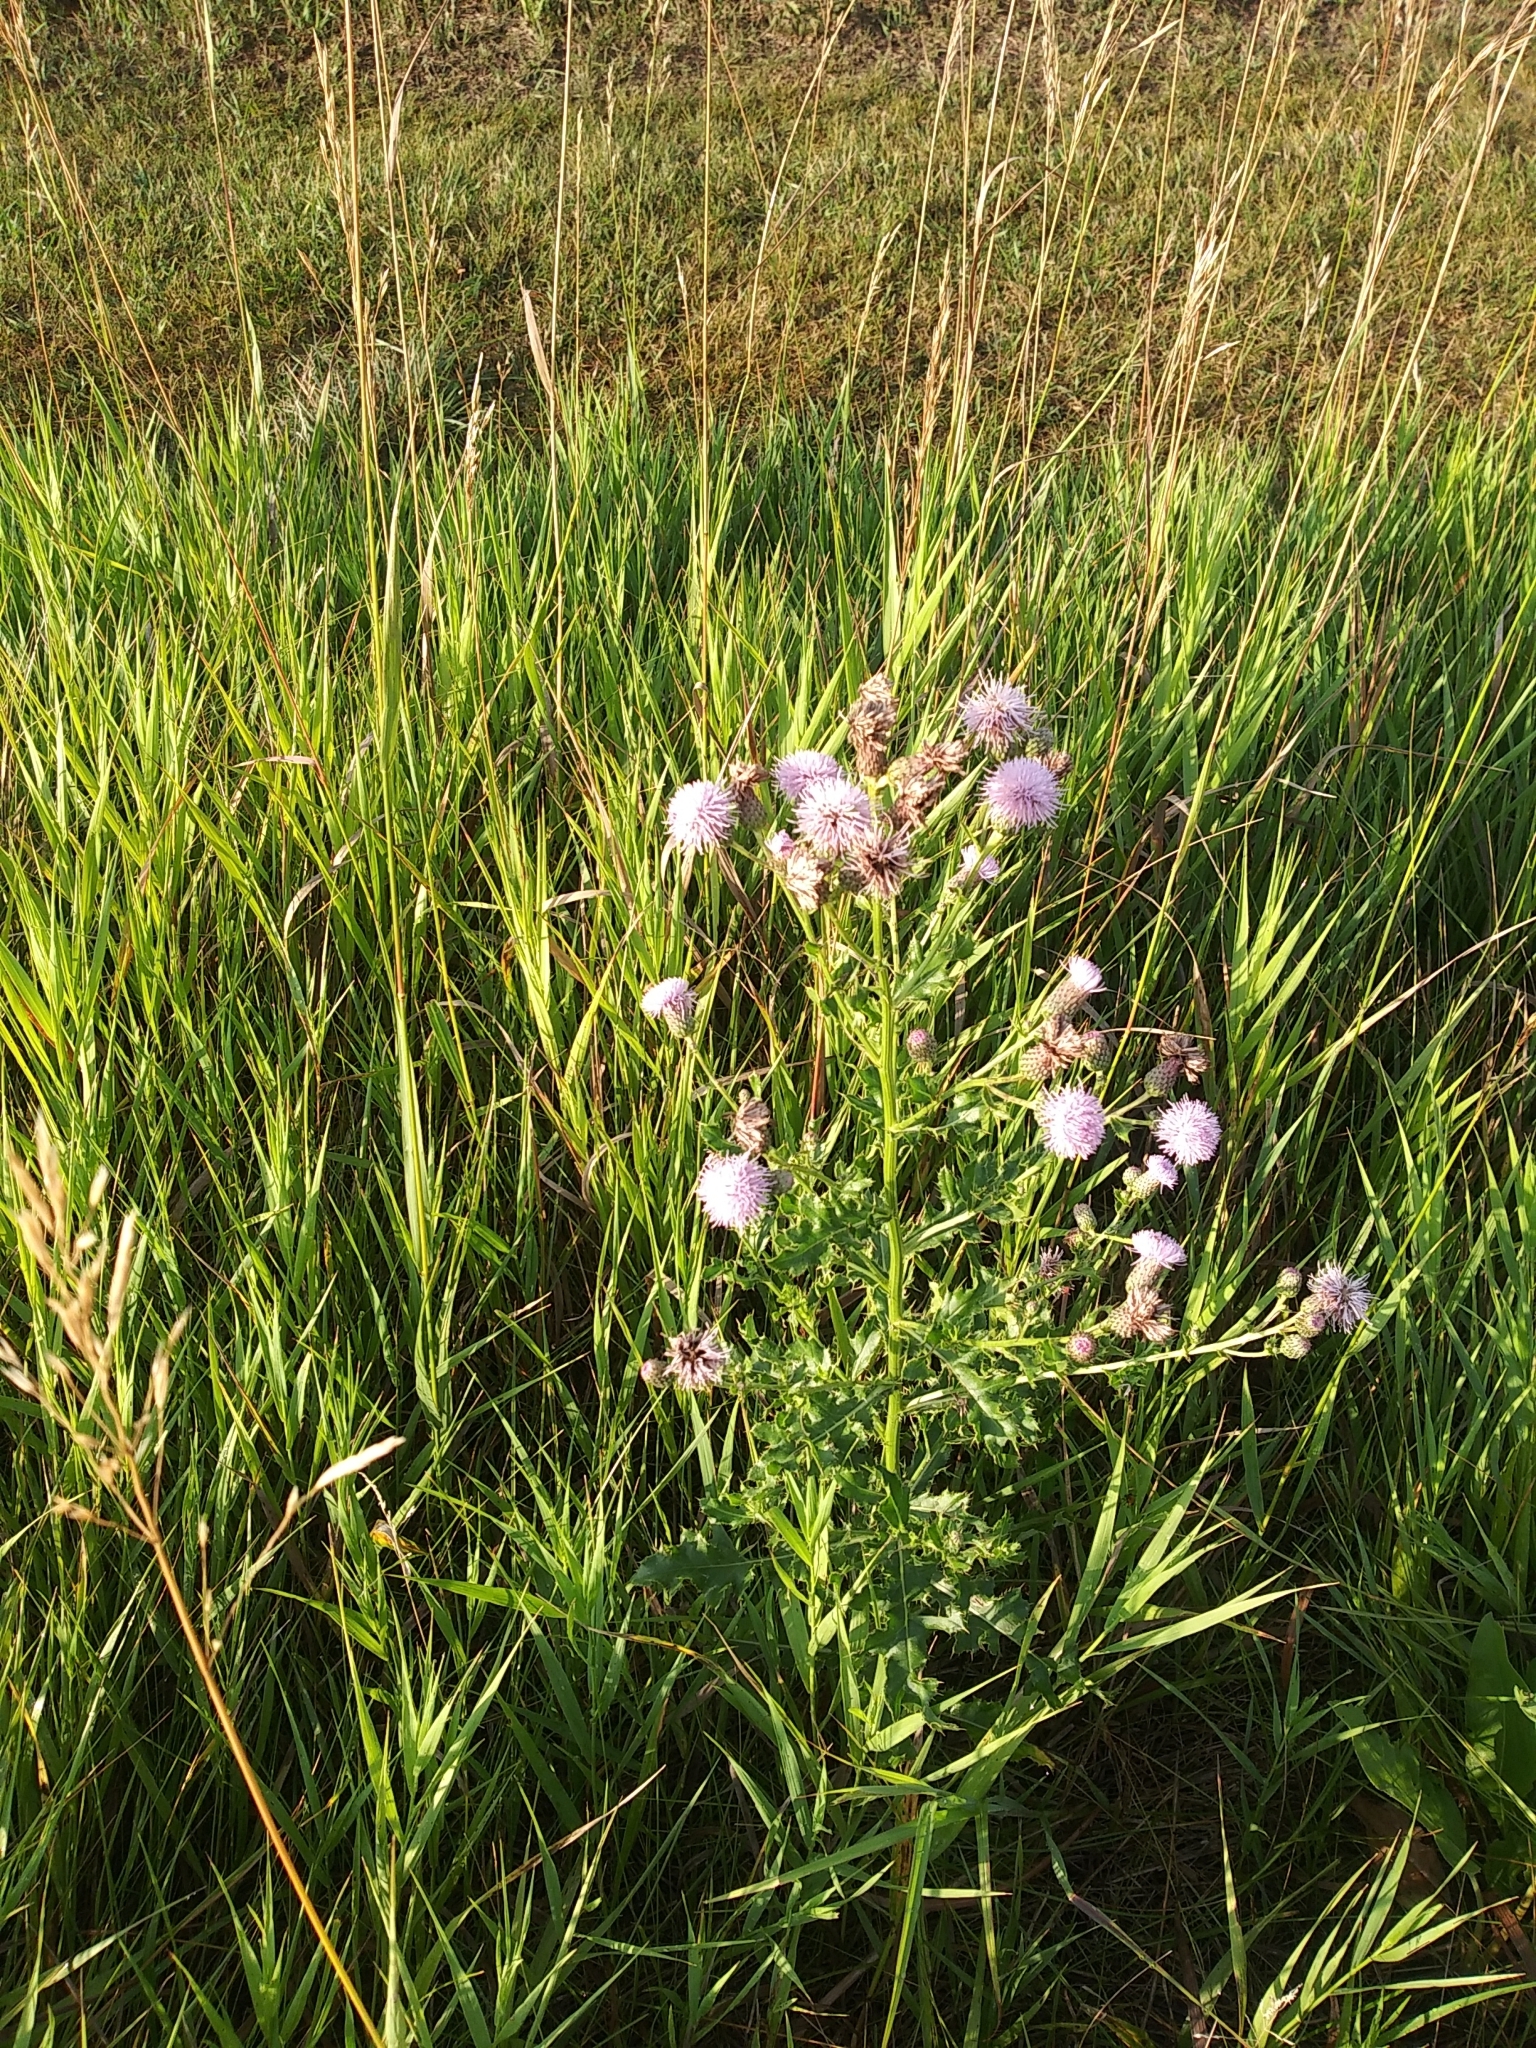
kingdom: Plantae
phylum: Tracheophyta
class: Magnoliopsida
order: Asterales
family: Asteraceae
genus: Cirsium
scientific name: Cirsium arvense
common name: Creeping thistle
